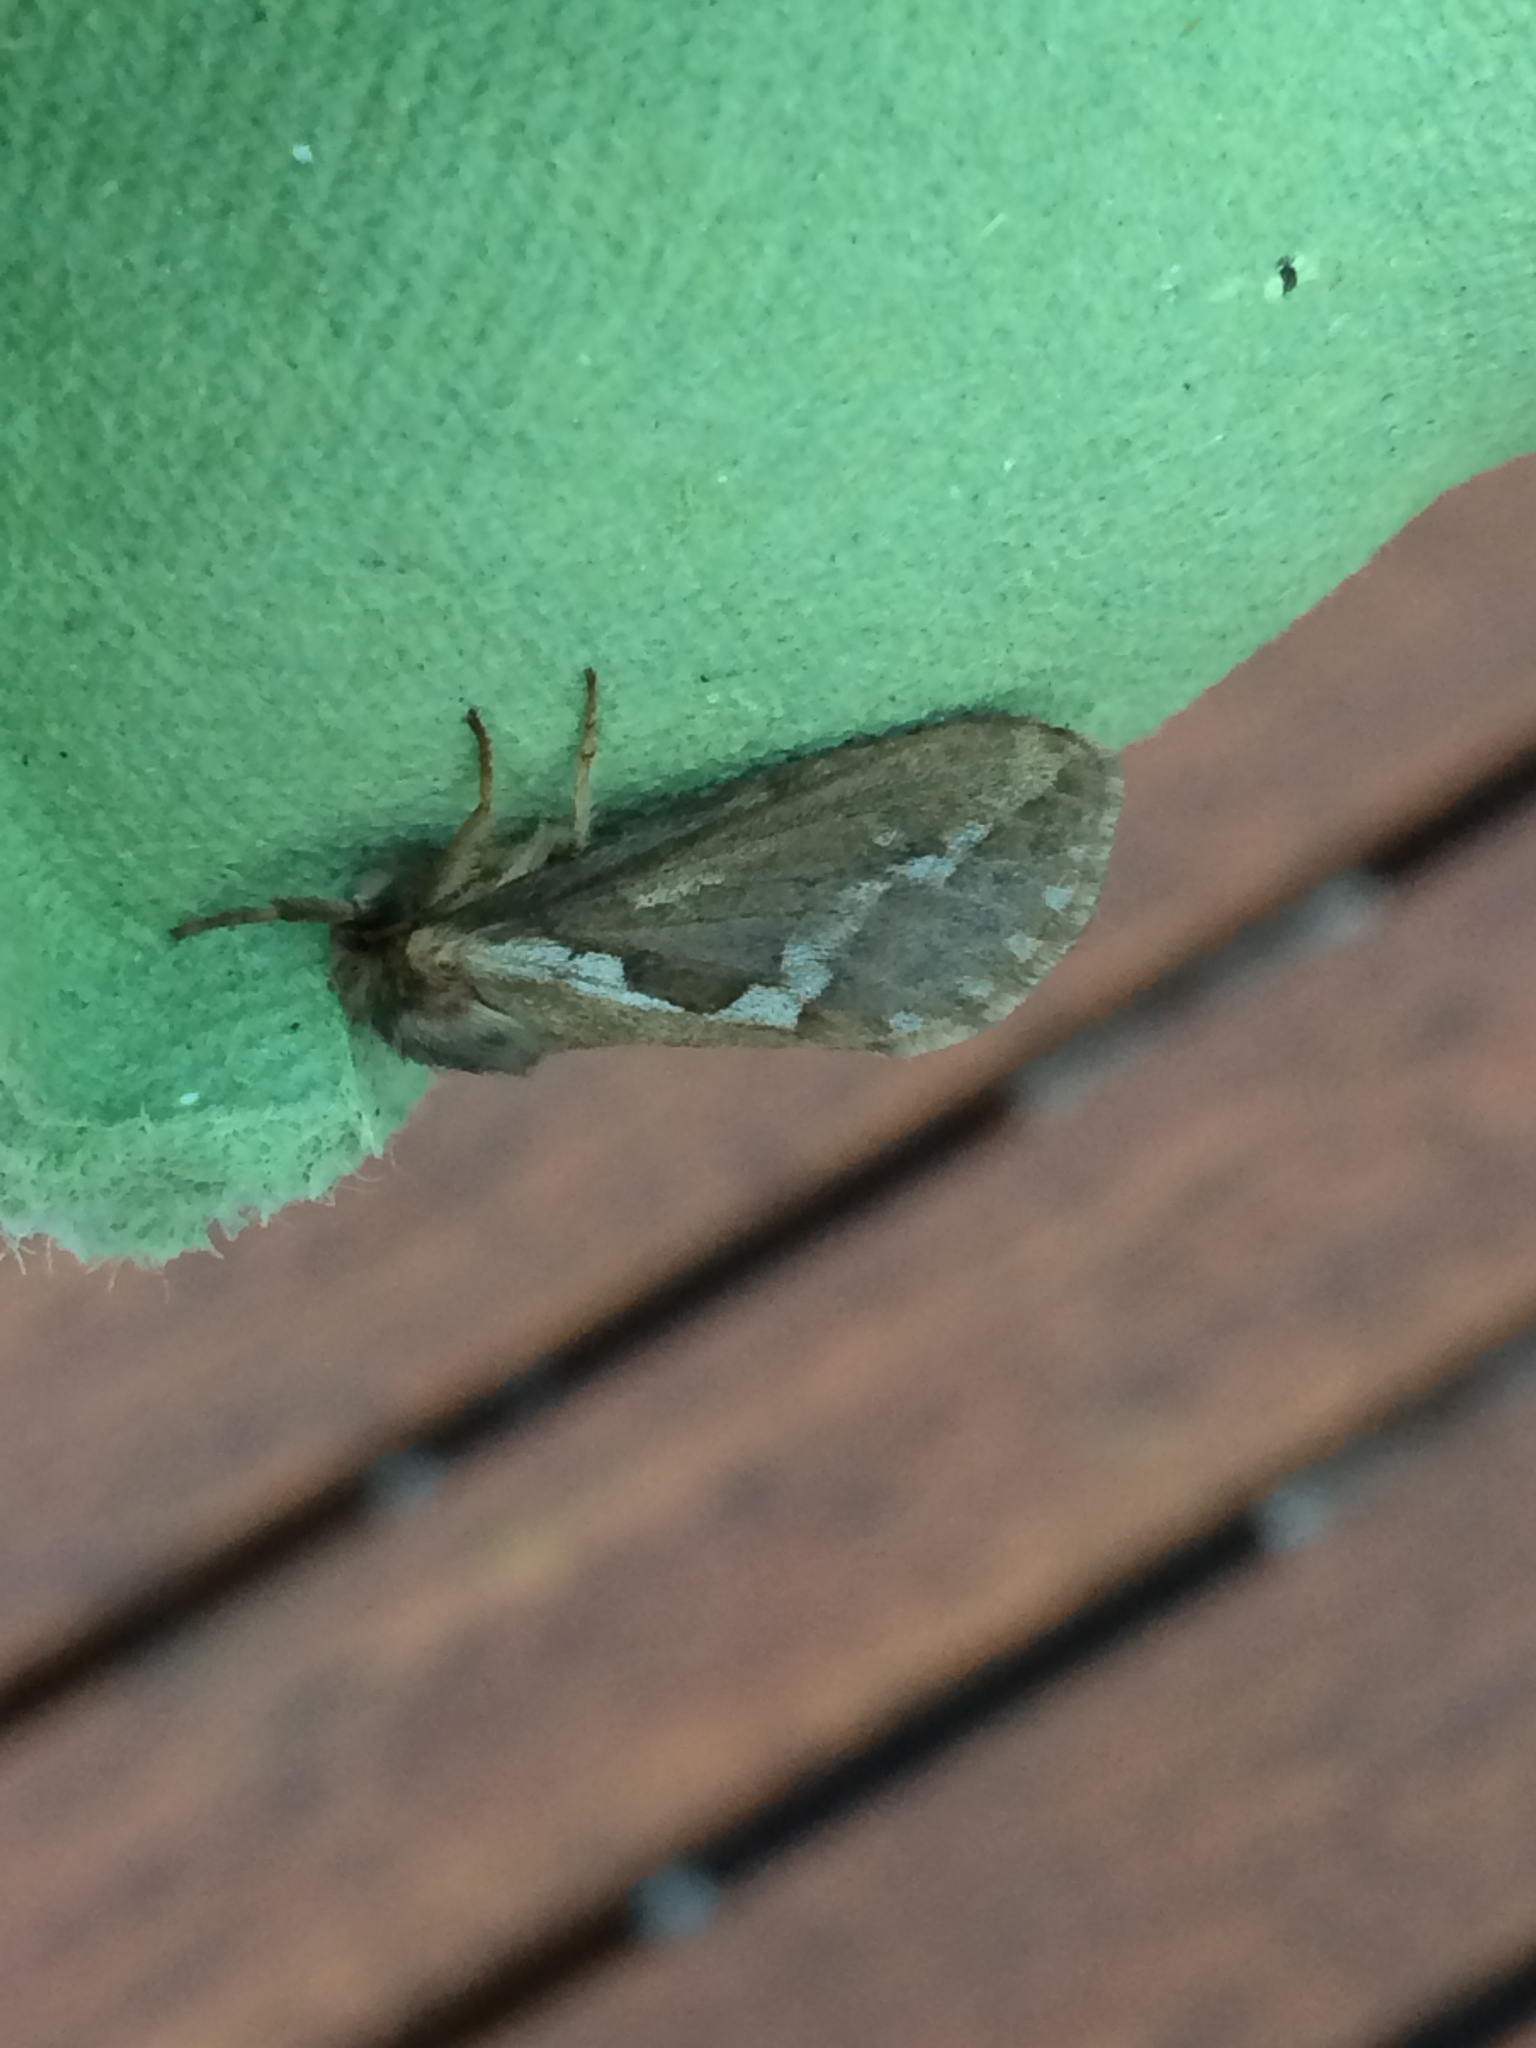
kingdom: Animalia
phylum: Arthropoda
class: Insecta
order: Lepidoptera
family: Hepialidae
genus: Korscheltellus
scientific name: Korscheltellus lupulina
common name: Common swift
